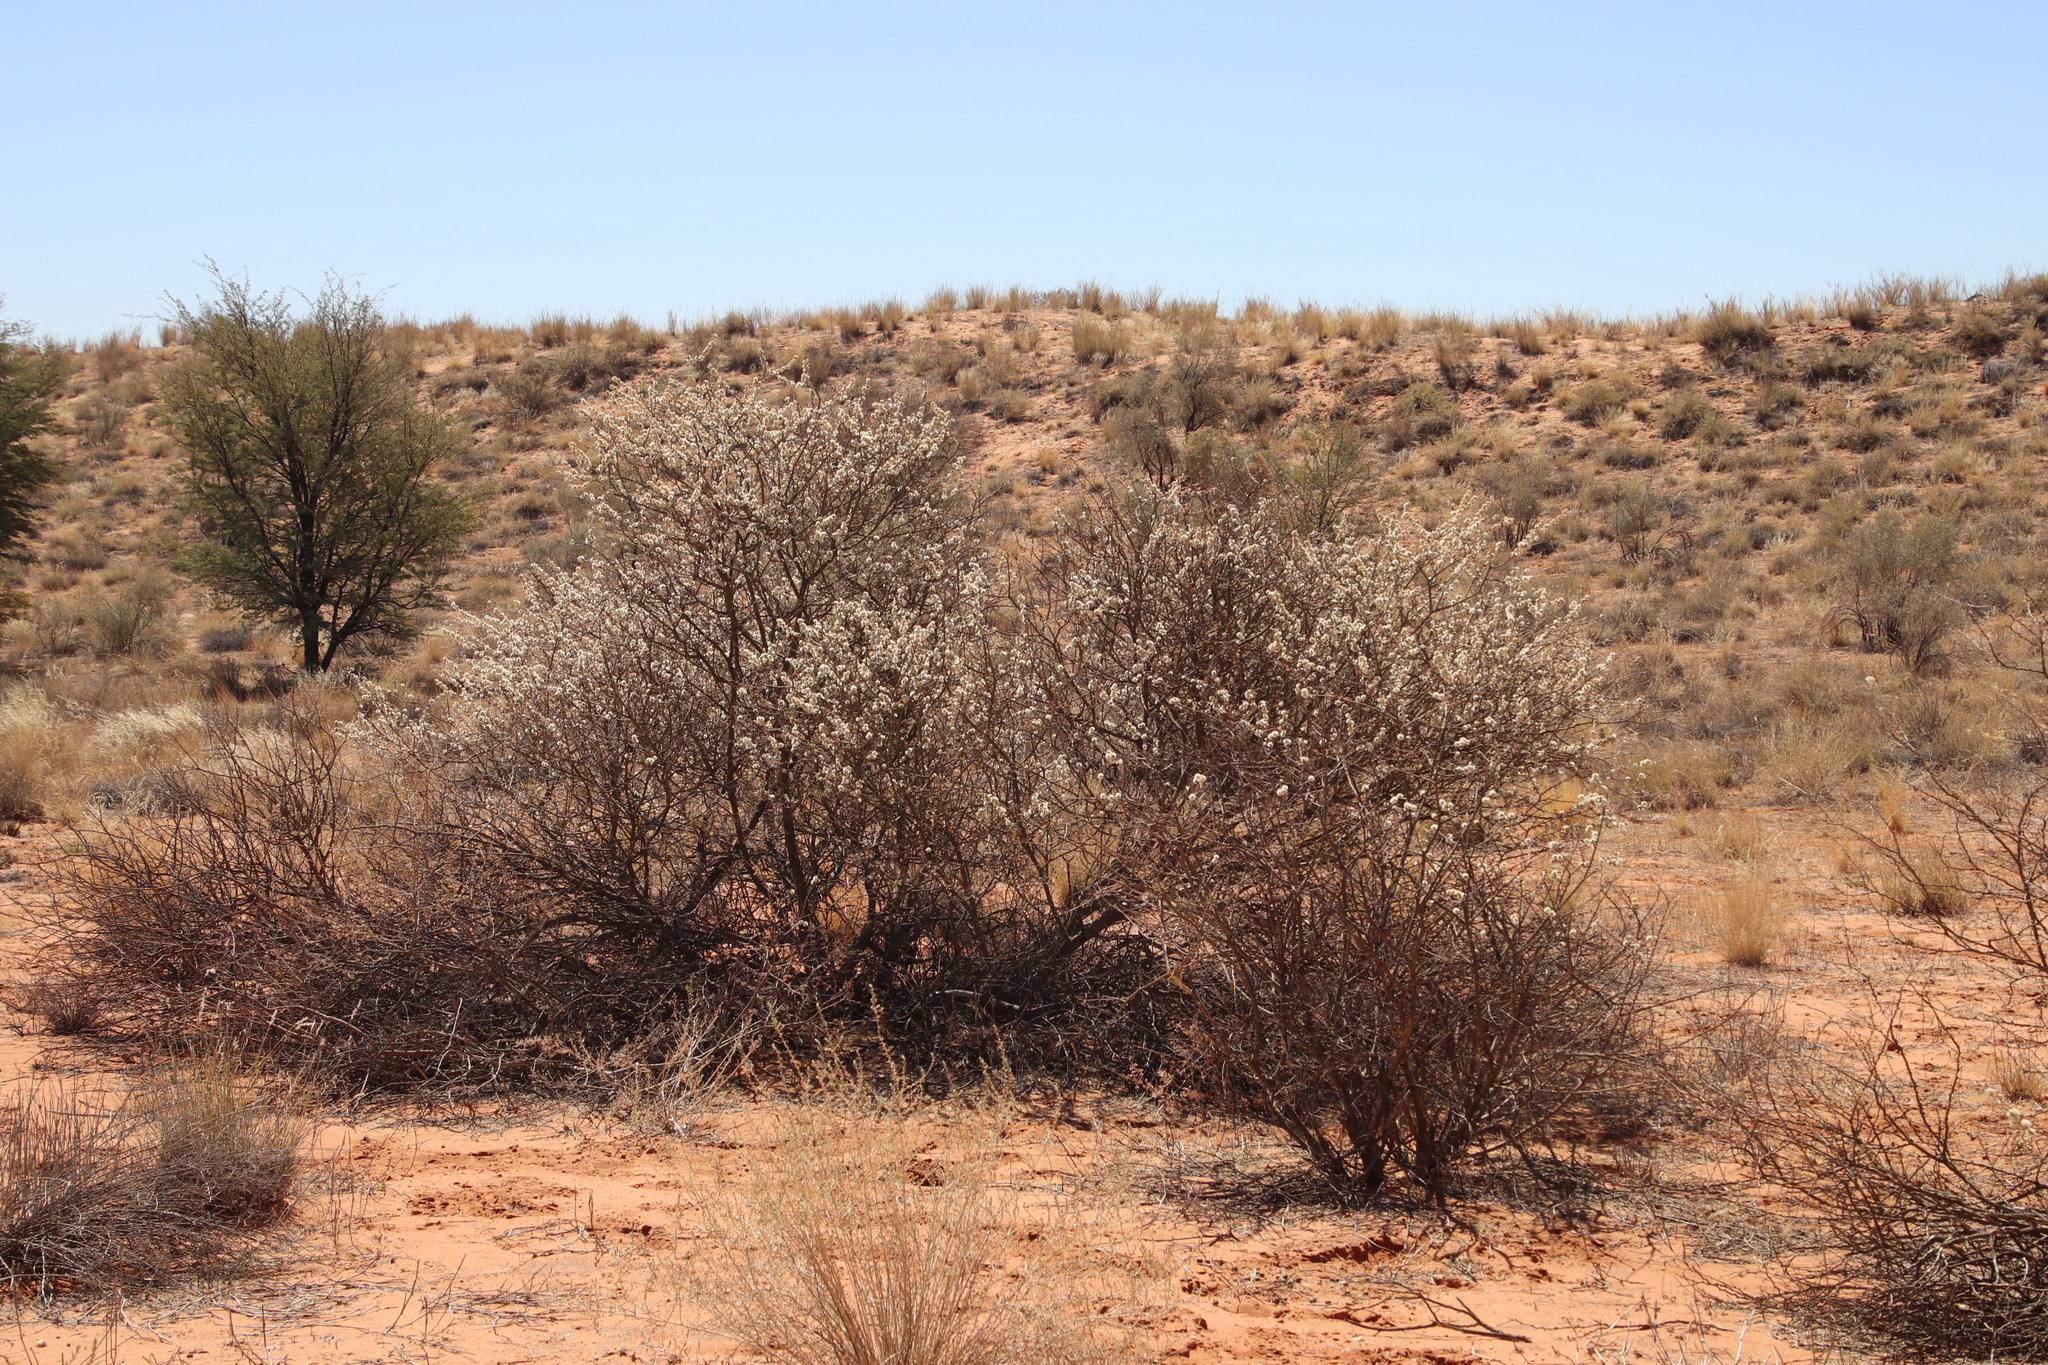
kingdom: Plantae
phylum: Tracheophyta
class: Magnoliopsida
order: Fabales
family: Fabaceae
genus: Senegalia
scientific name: Senegalia mellifera
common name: Hookthorn
